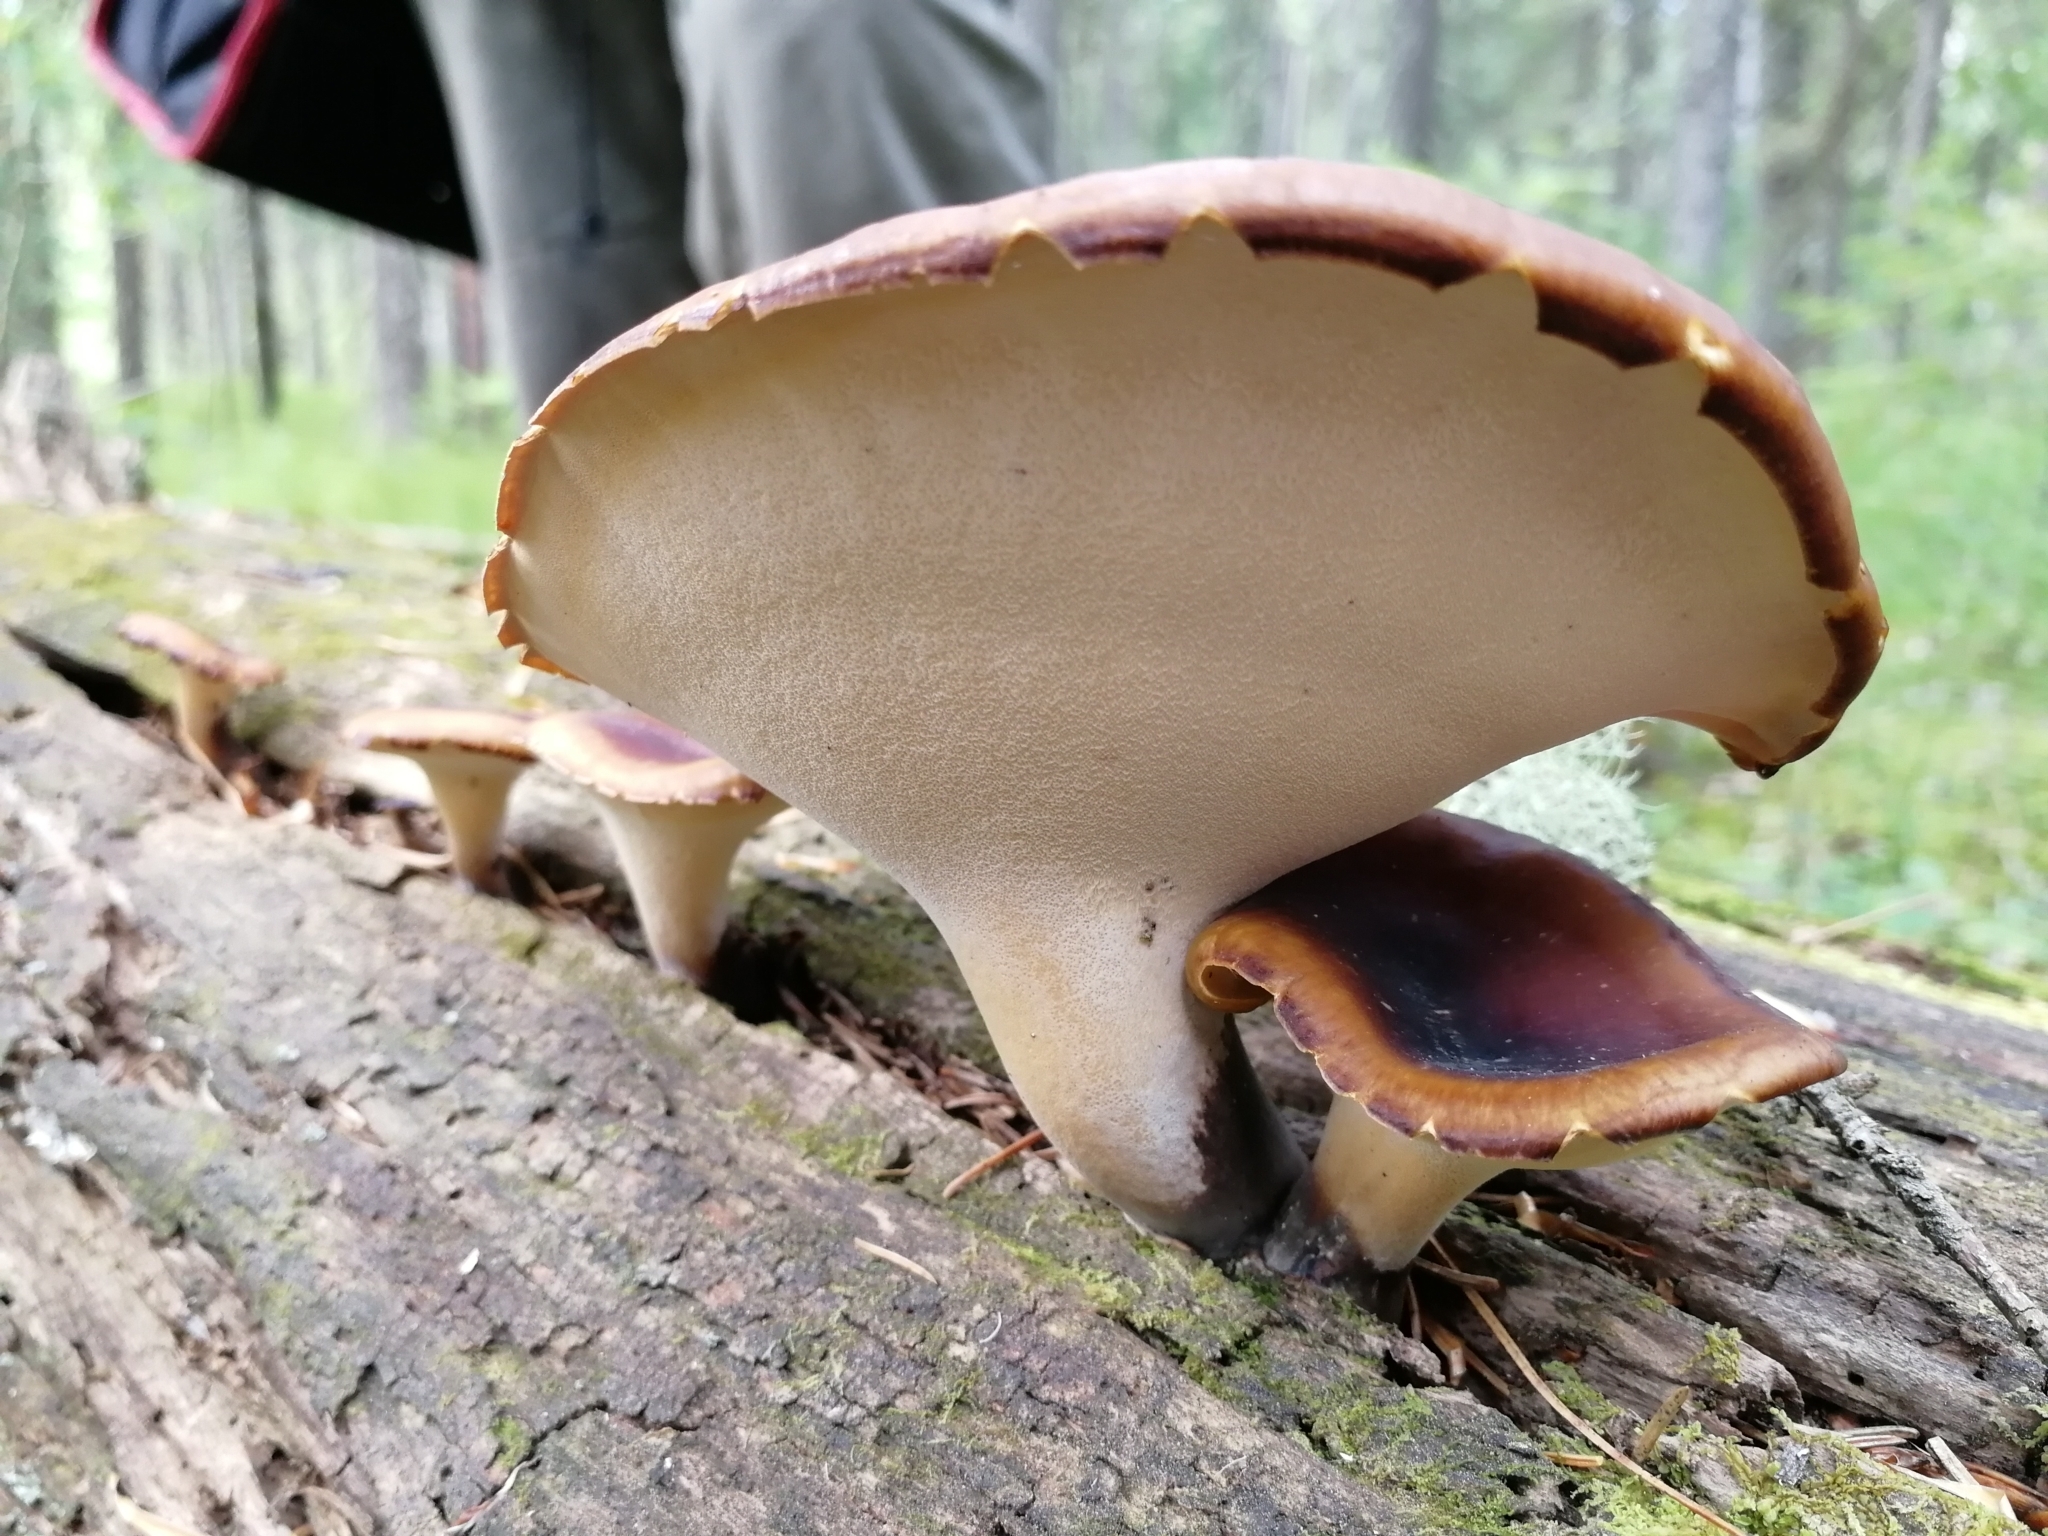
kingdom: Fungi
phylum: Basidiomycota
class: Agaricomycetes
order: Polyporales
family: Polyporaceae
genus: Picipes
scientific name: Picipes badius
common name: Bay polypore
